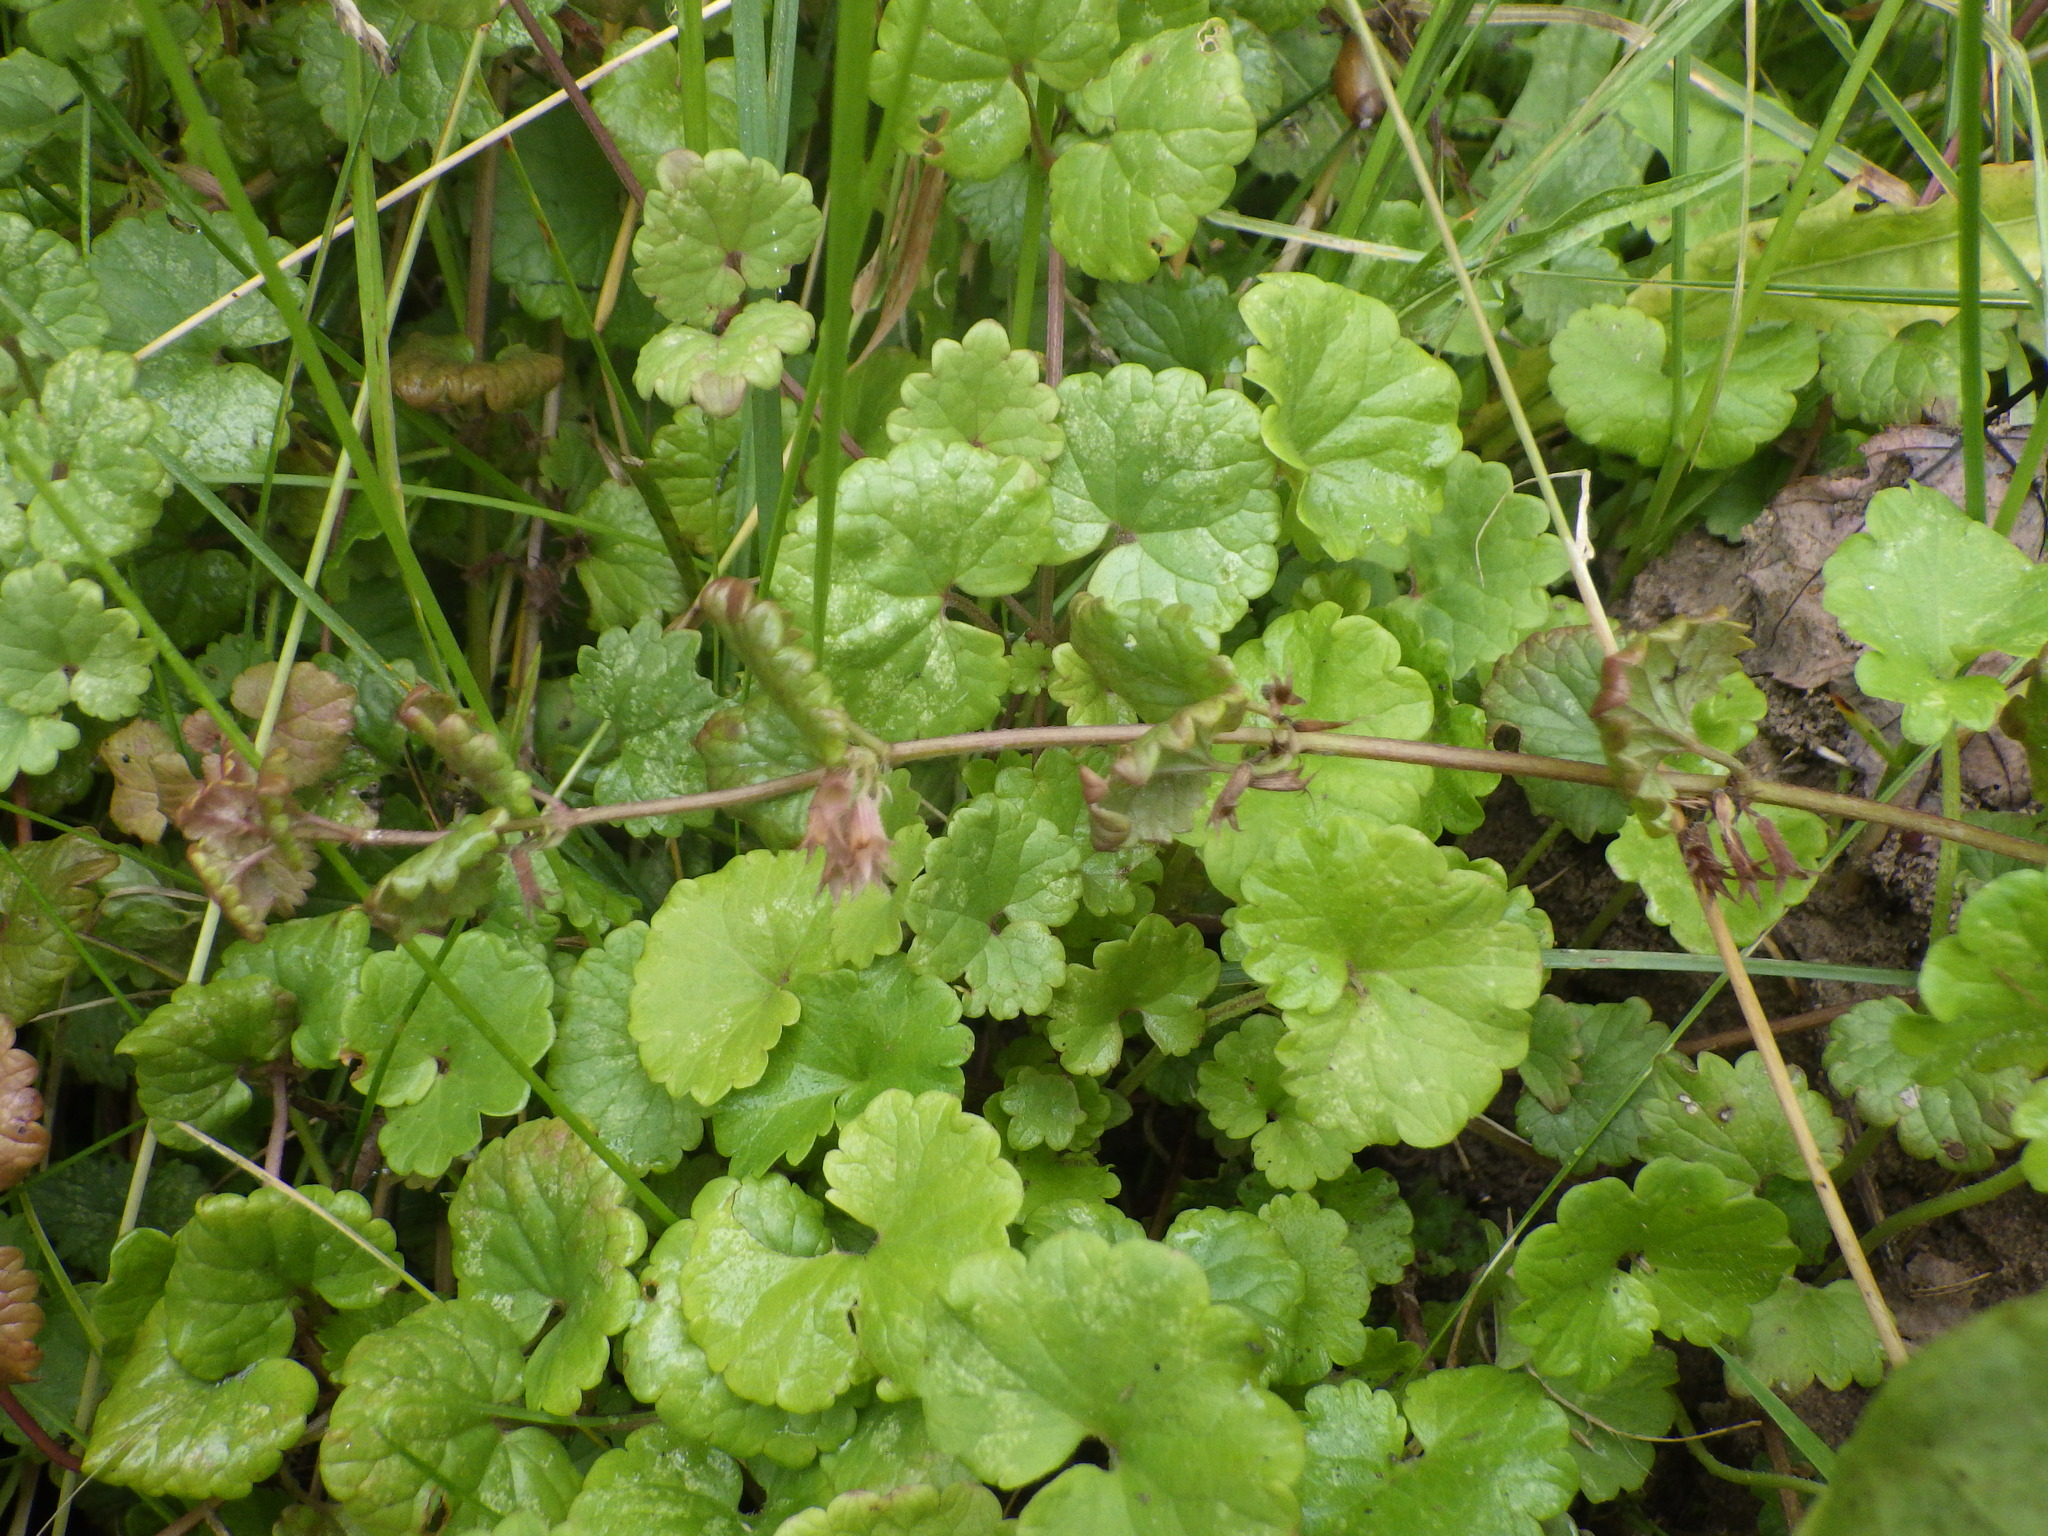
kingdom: Plantae
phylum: Tracheophyta
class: Magnoliopsida
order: Lamiales
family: Lamiaceae
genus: Glechoma
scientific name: Glechoma hederacea
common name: Ground ivy
